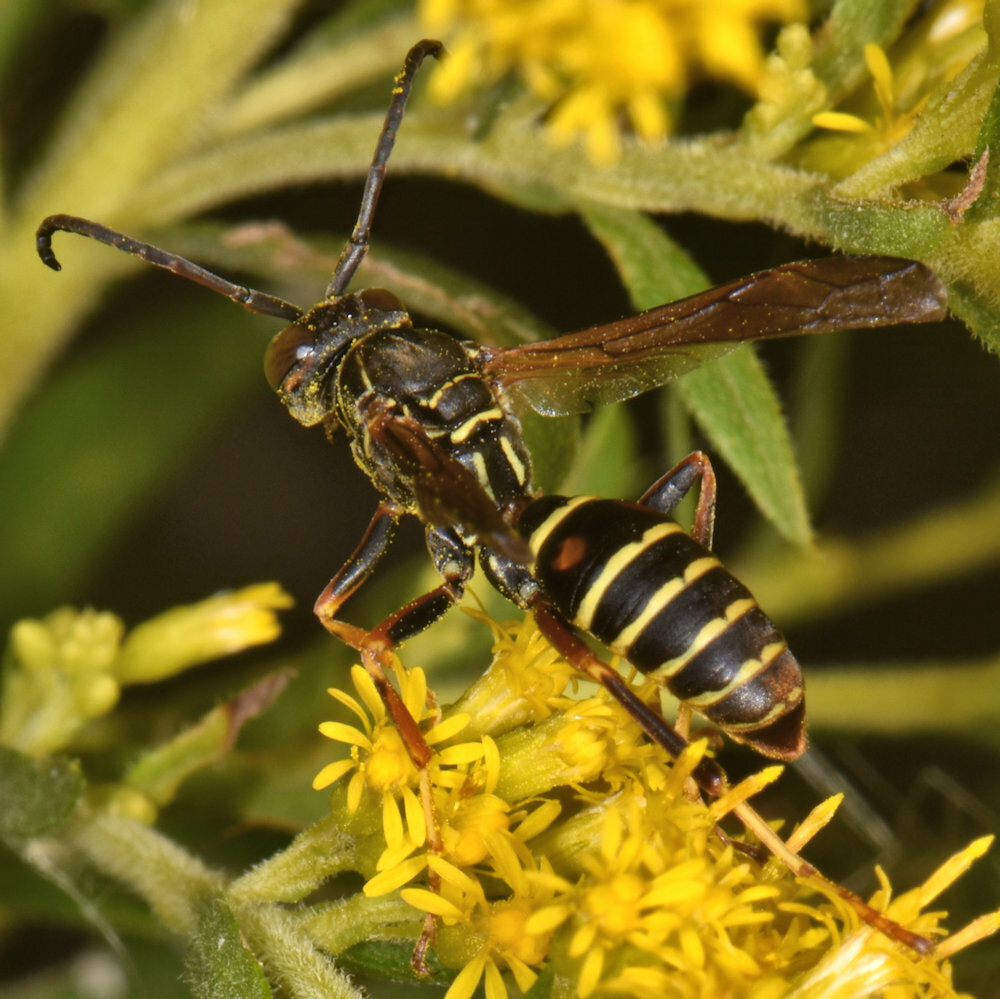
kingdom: Animalia
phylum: Arthropoda
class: Insecta
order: Hymenoptera
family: Eumenidae
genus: Polistes
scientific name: Polistes fuscatus
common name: Dark paper wasp
